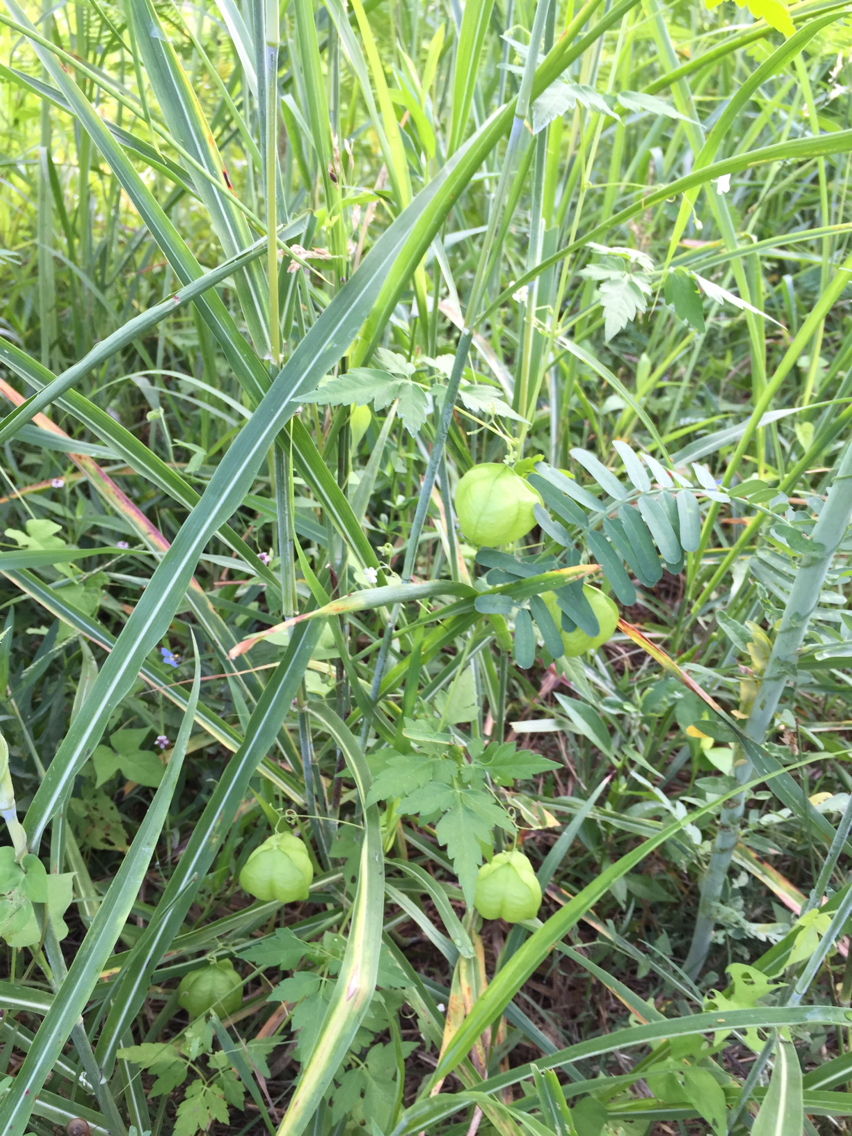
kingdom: Plantae
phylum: Tracheophyta
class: Magnoliopsida
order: Sapindales
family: Sapindaceae
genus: Cardiospermum
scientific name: Cardiospermum halicacabum
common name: Balloon vine
